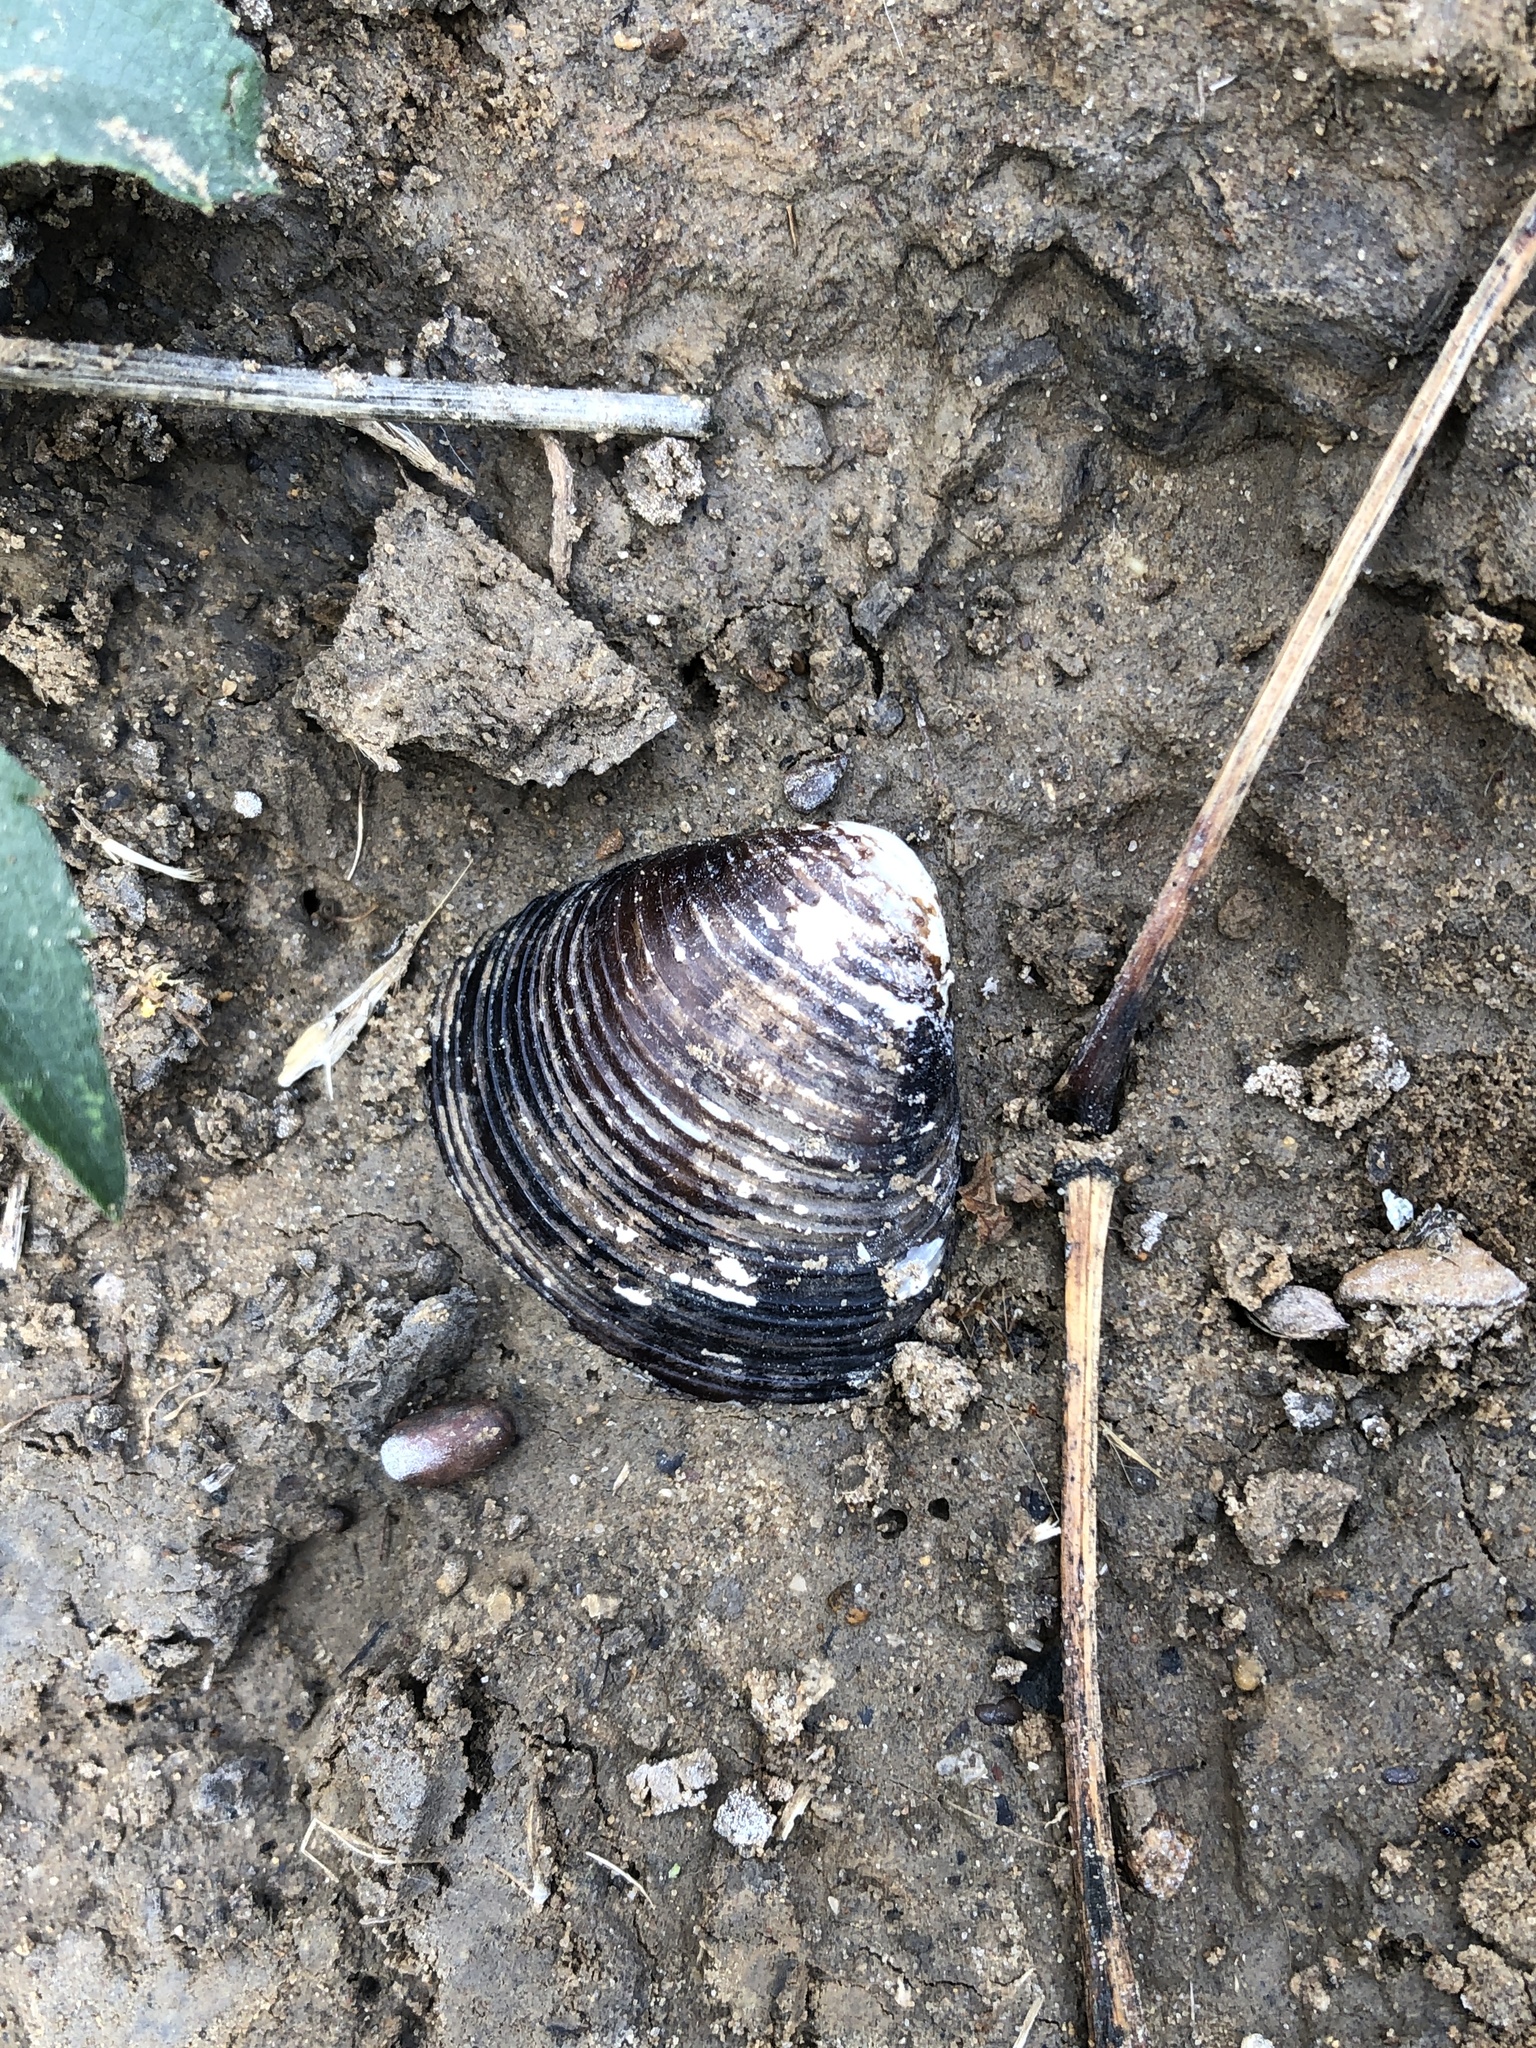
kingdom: Animalia
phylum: Mollusca
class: Bivalvia
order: Venerida
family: Cyrenidae
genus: Corbicula
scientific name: Corbicula fluminea
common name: Asian clam
